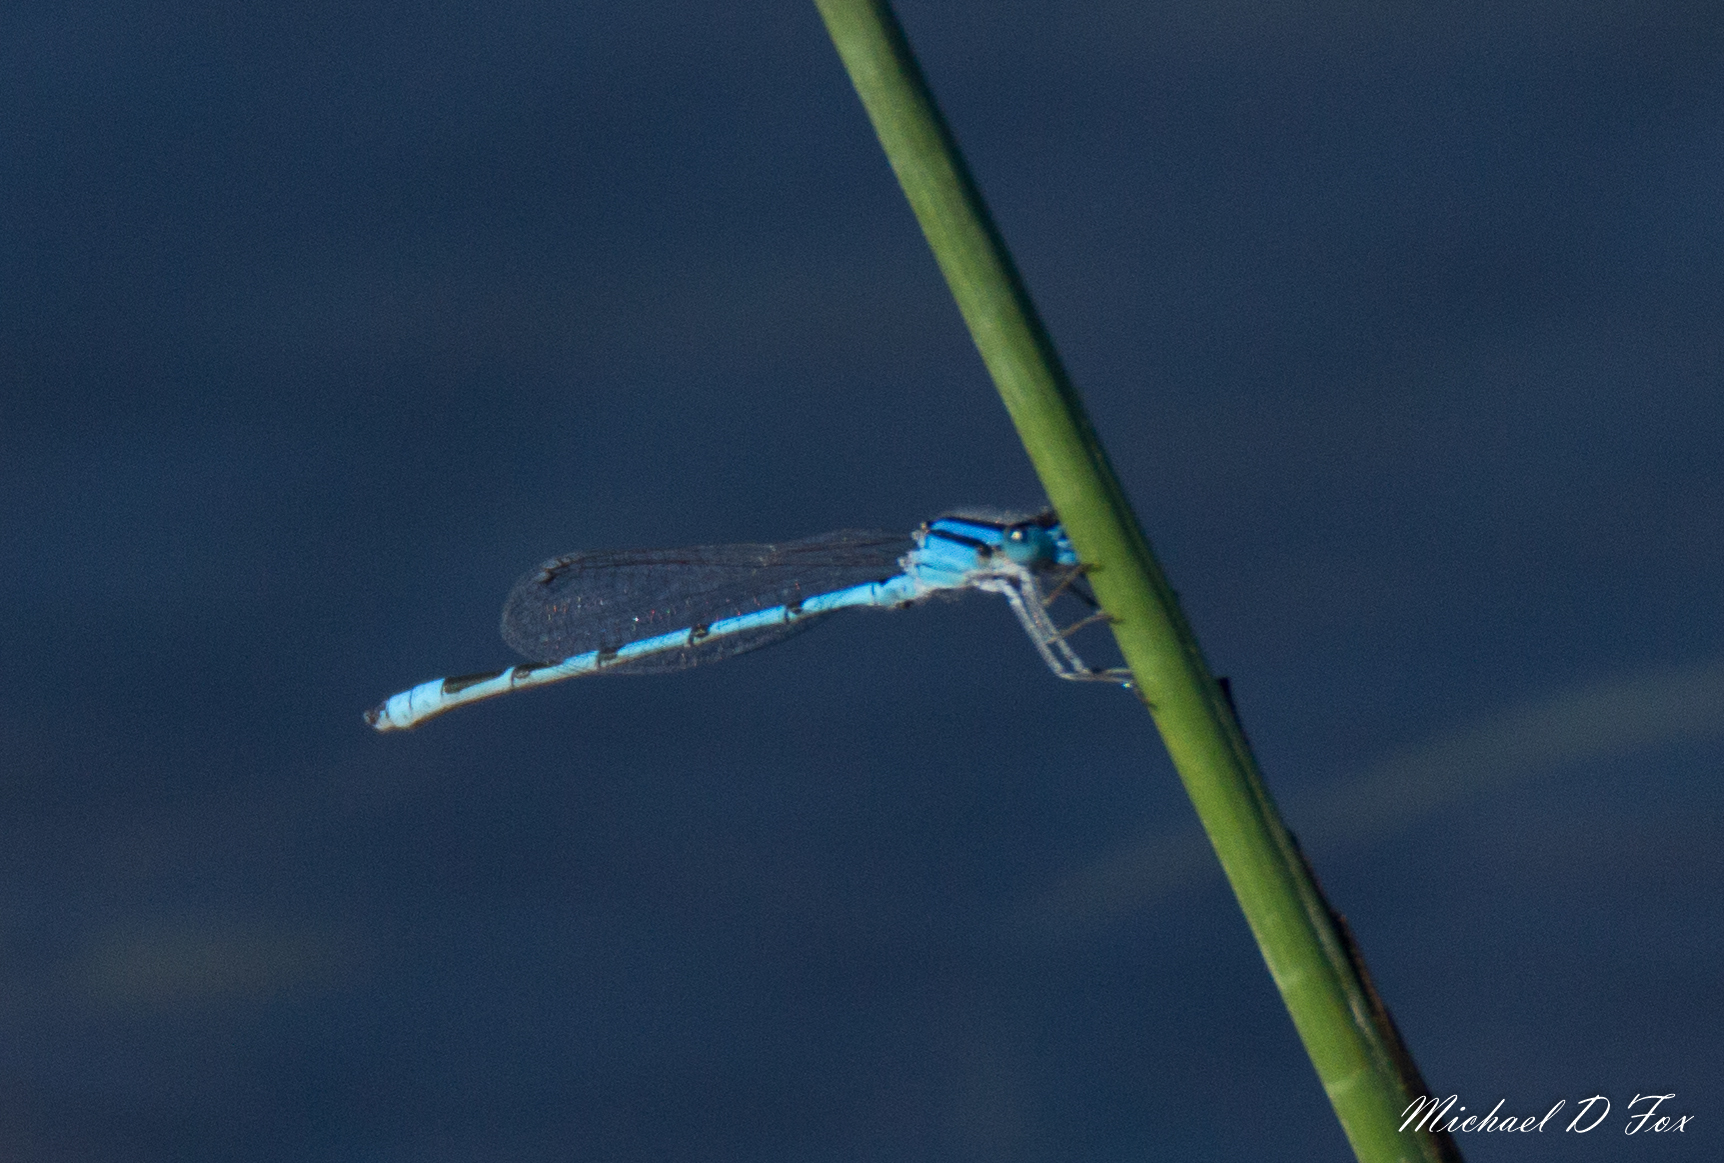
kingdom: Animalia
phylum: Arthropoda
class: Insecta
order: Odonata
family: Coenagrionidae
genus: Enallagma
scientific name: Enallagma civile
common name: Damselfly
